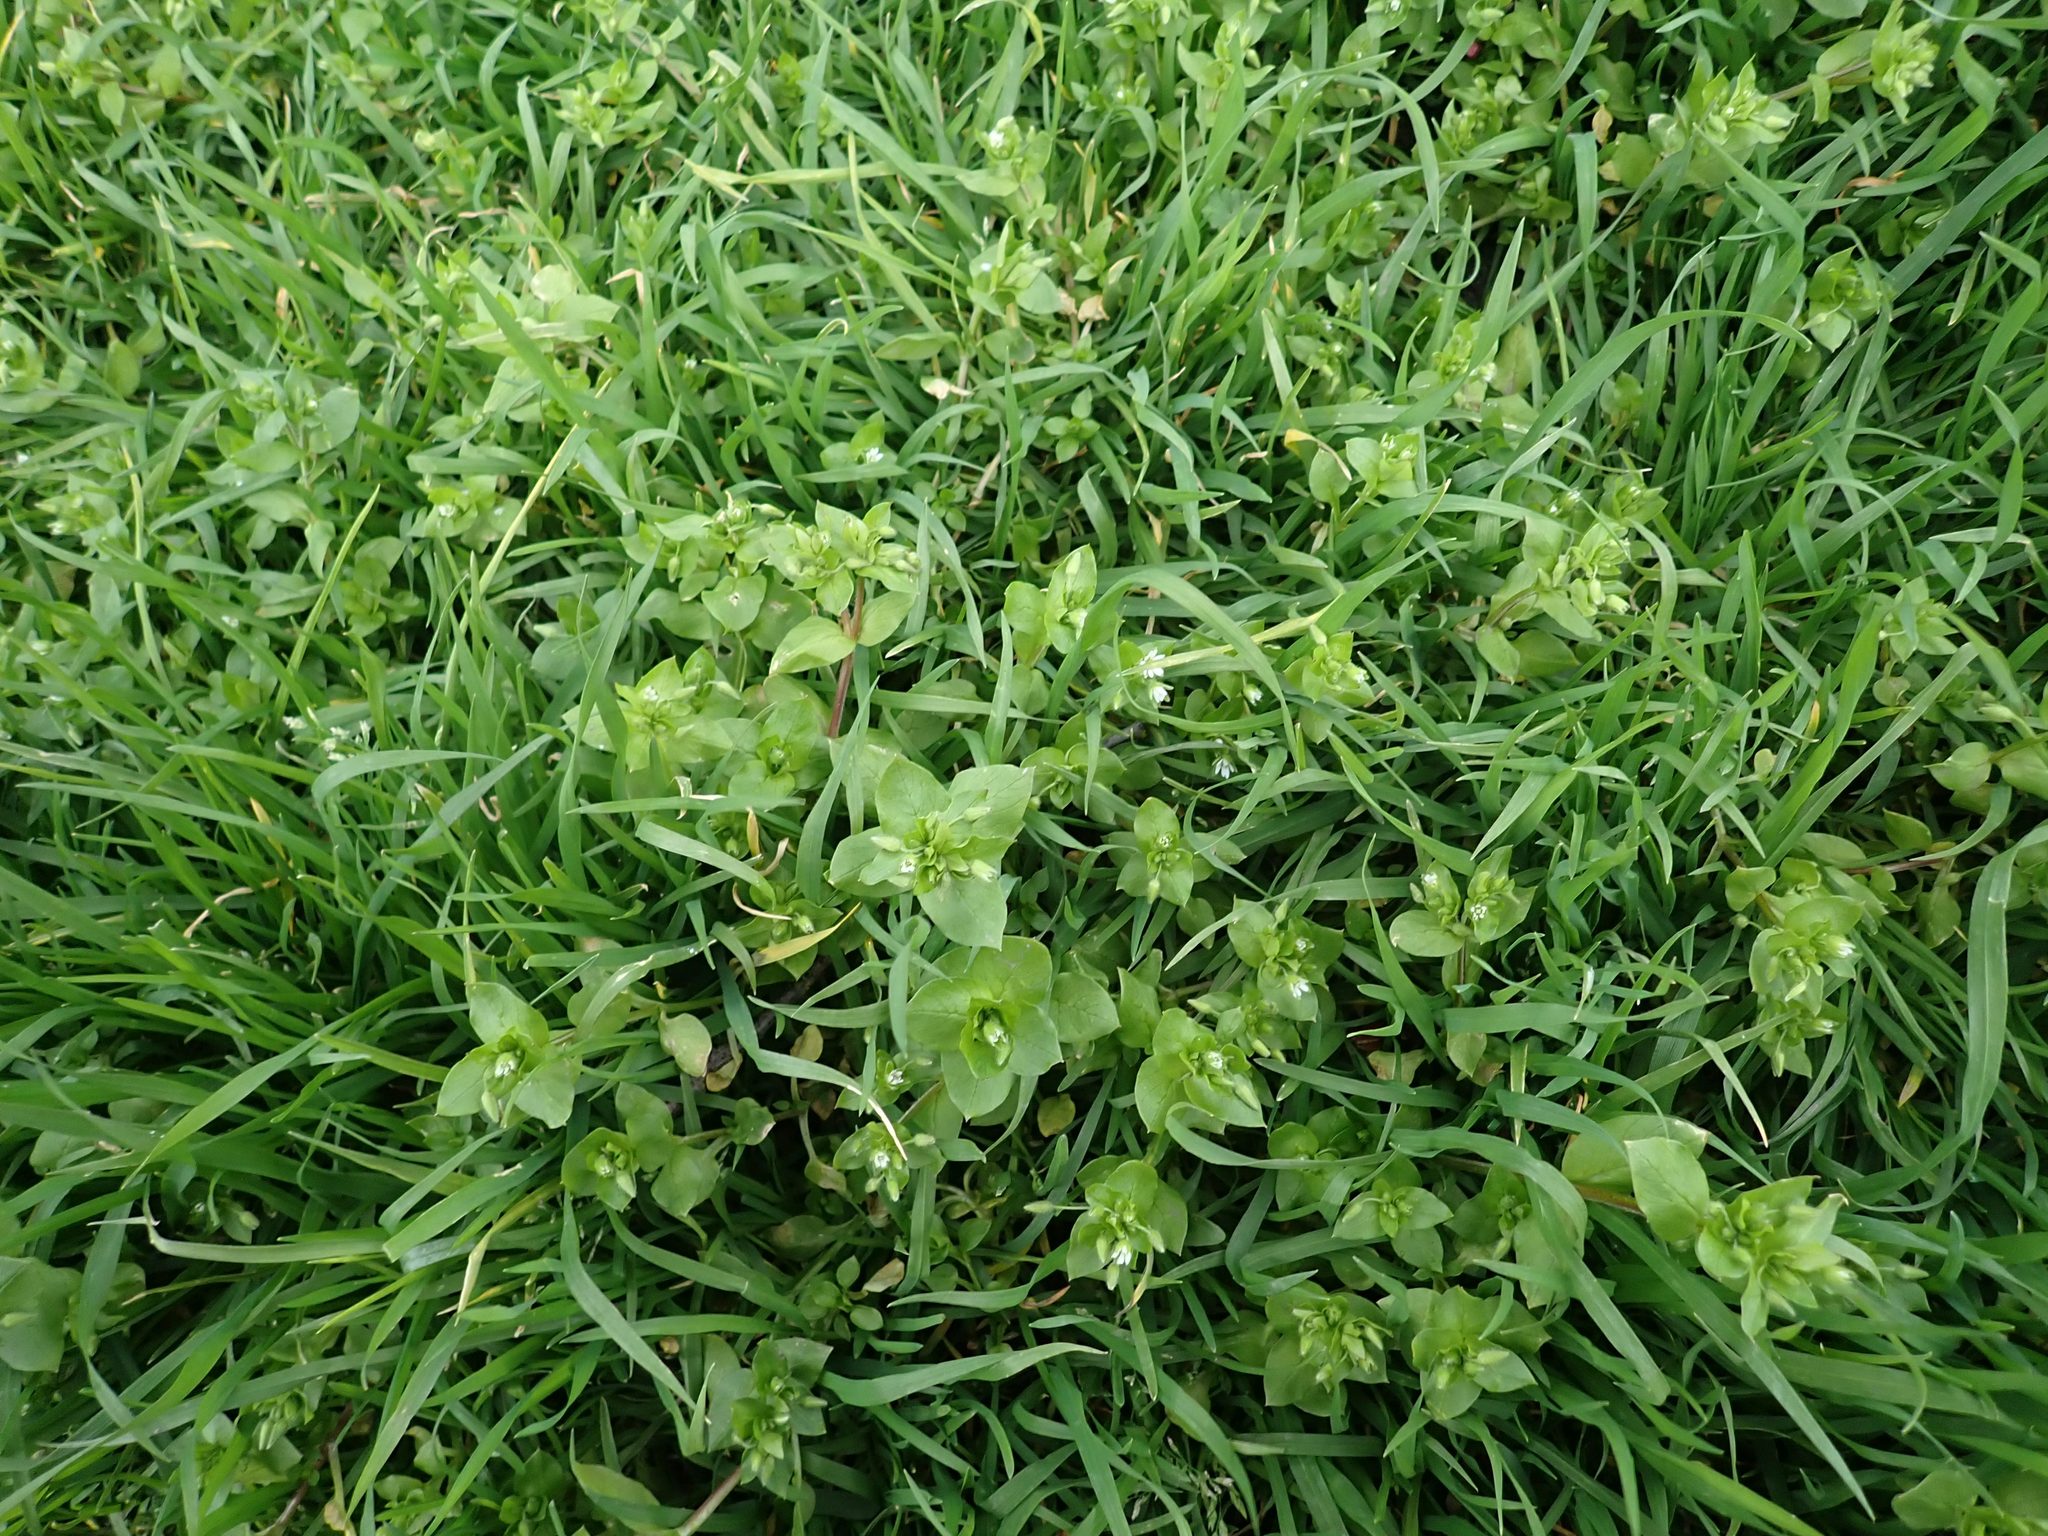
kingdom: Plantae
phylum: Tracheophyta
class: Magnoliopsida
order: Caryophyllales
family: Caryophyllaceae
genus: Stellaria
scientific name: Stellaria media
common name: Common chickweed
